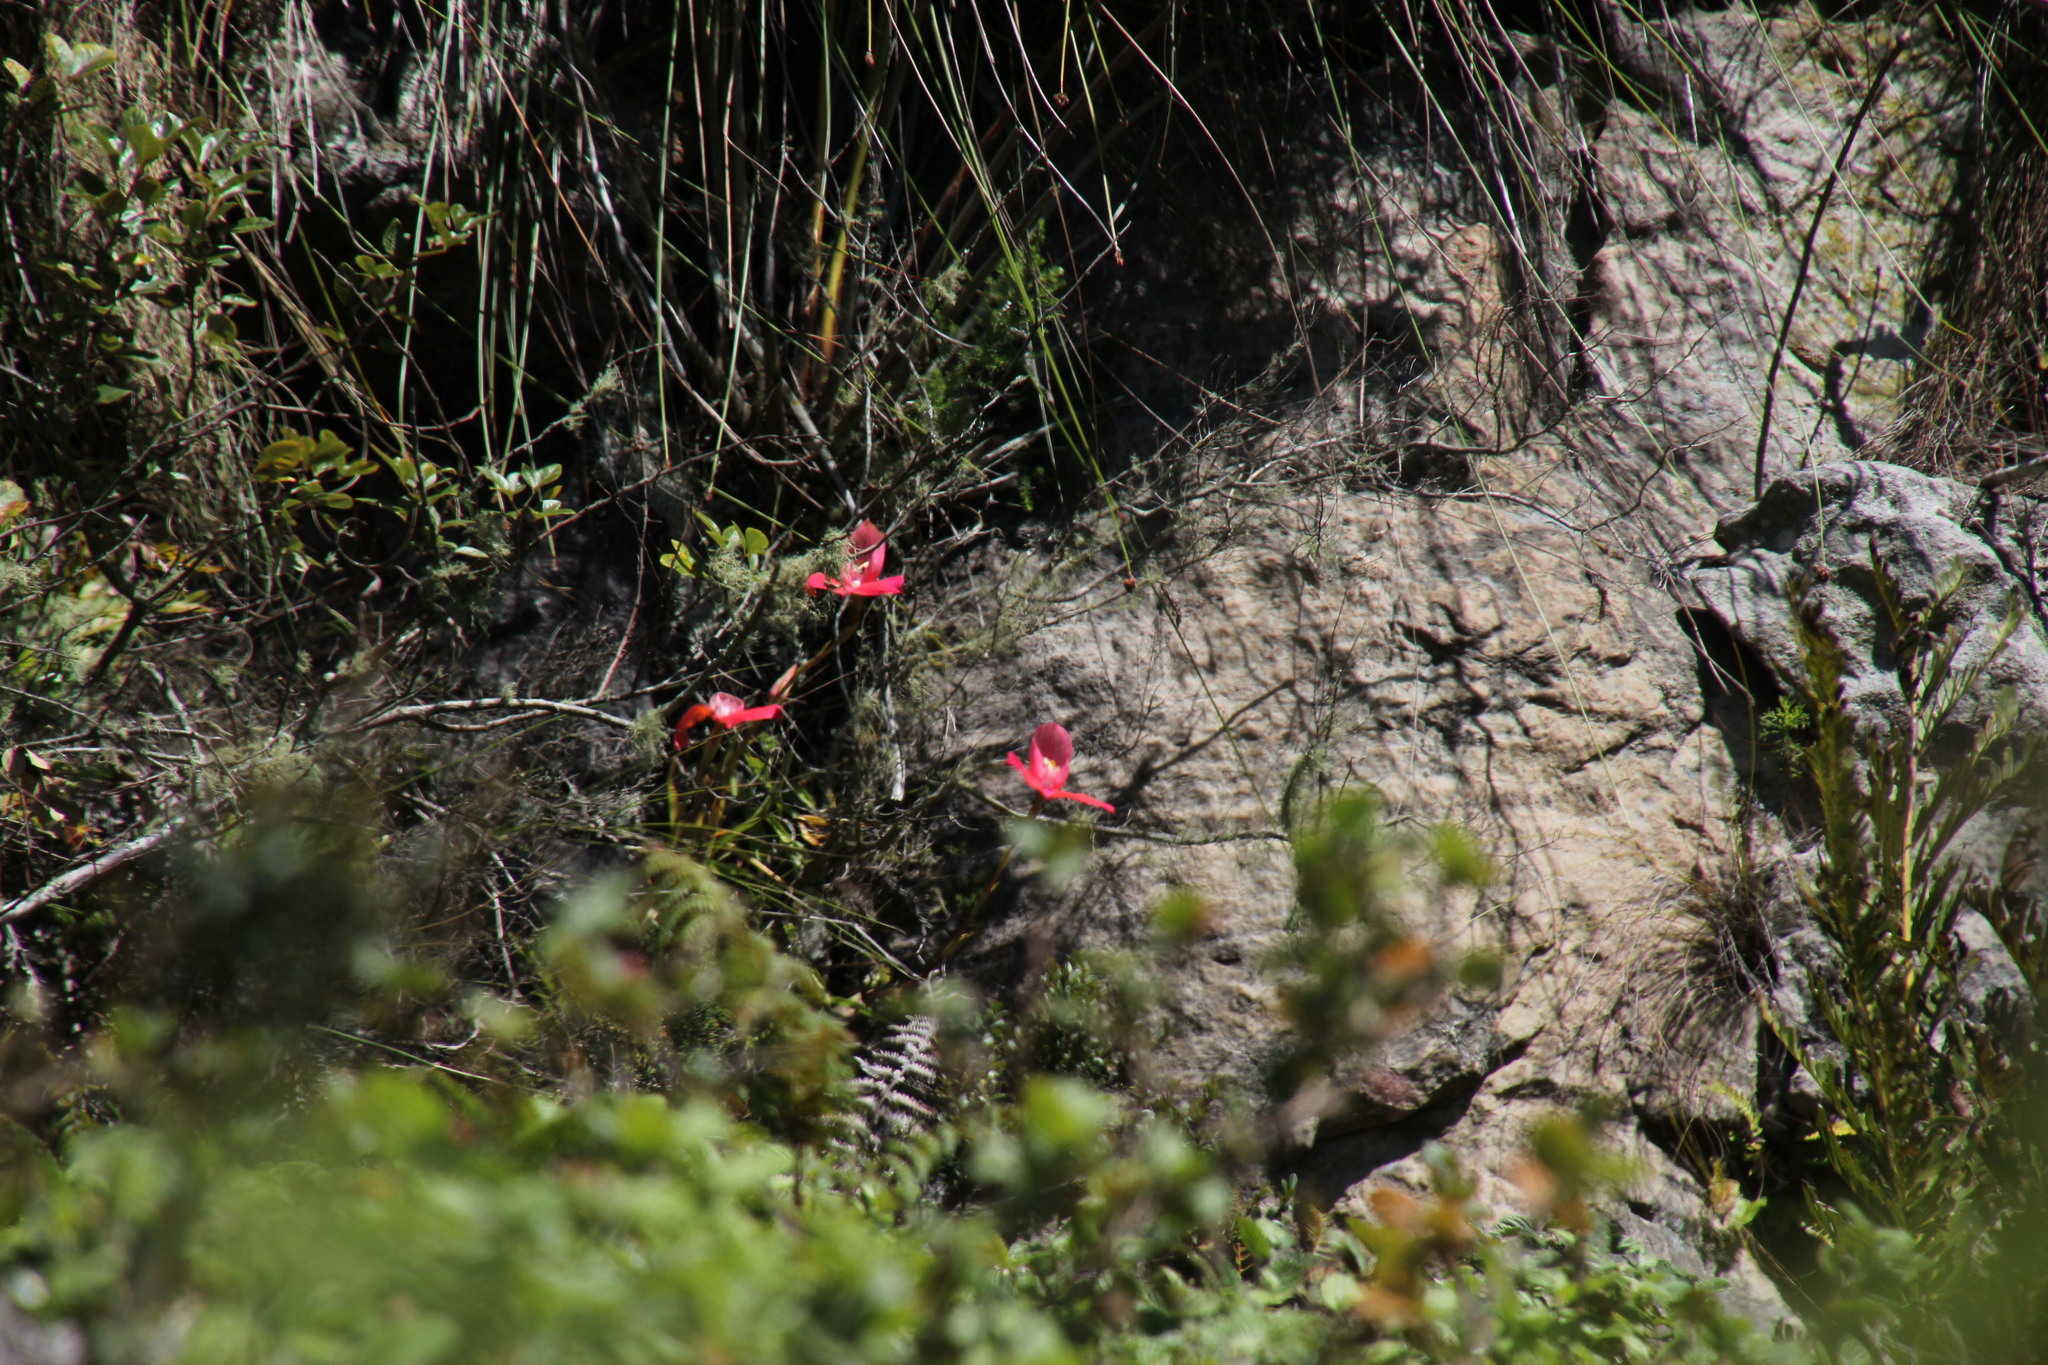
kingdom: Plantae
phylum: Tracheophyta
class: Liliopsida
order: Asparagales
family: Orchidaceae
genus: Disa
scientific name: Disa uniflora
